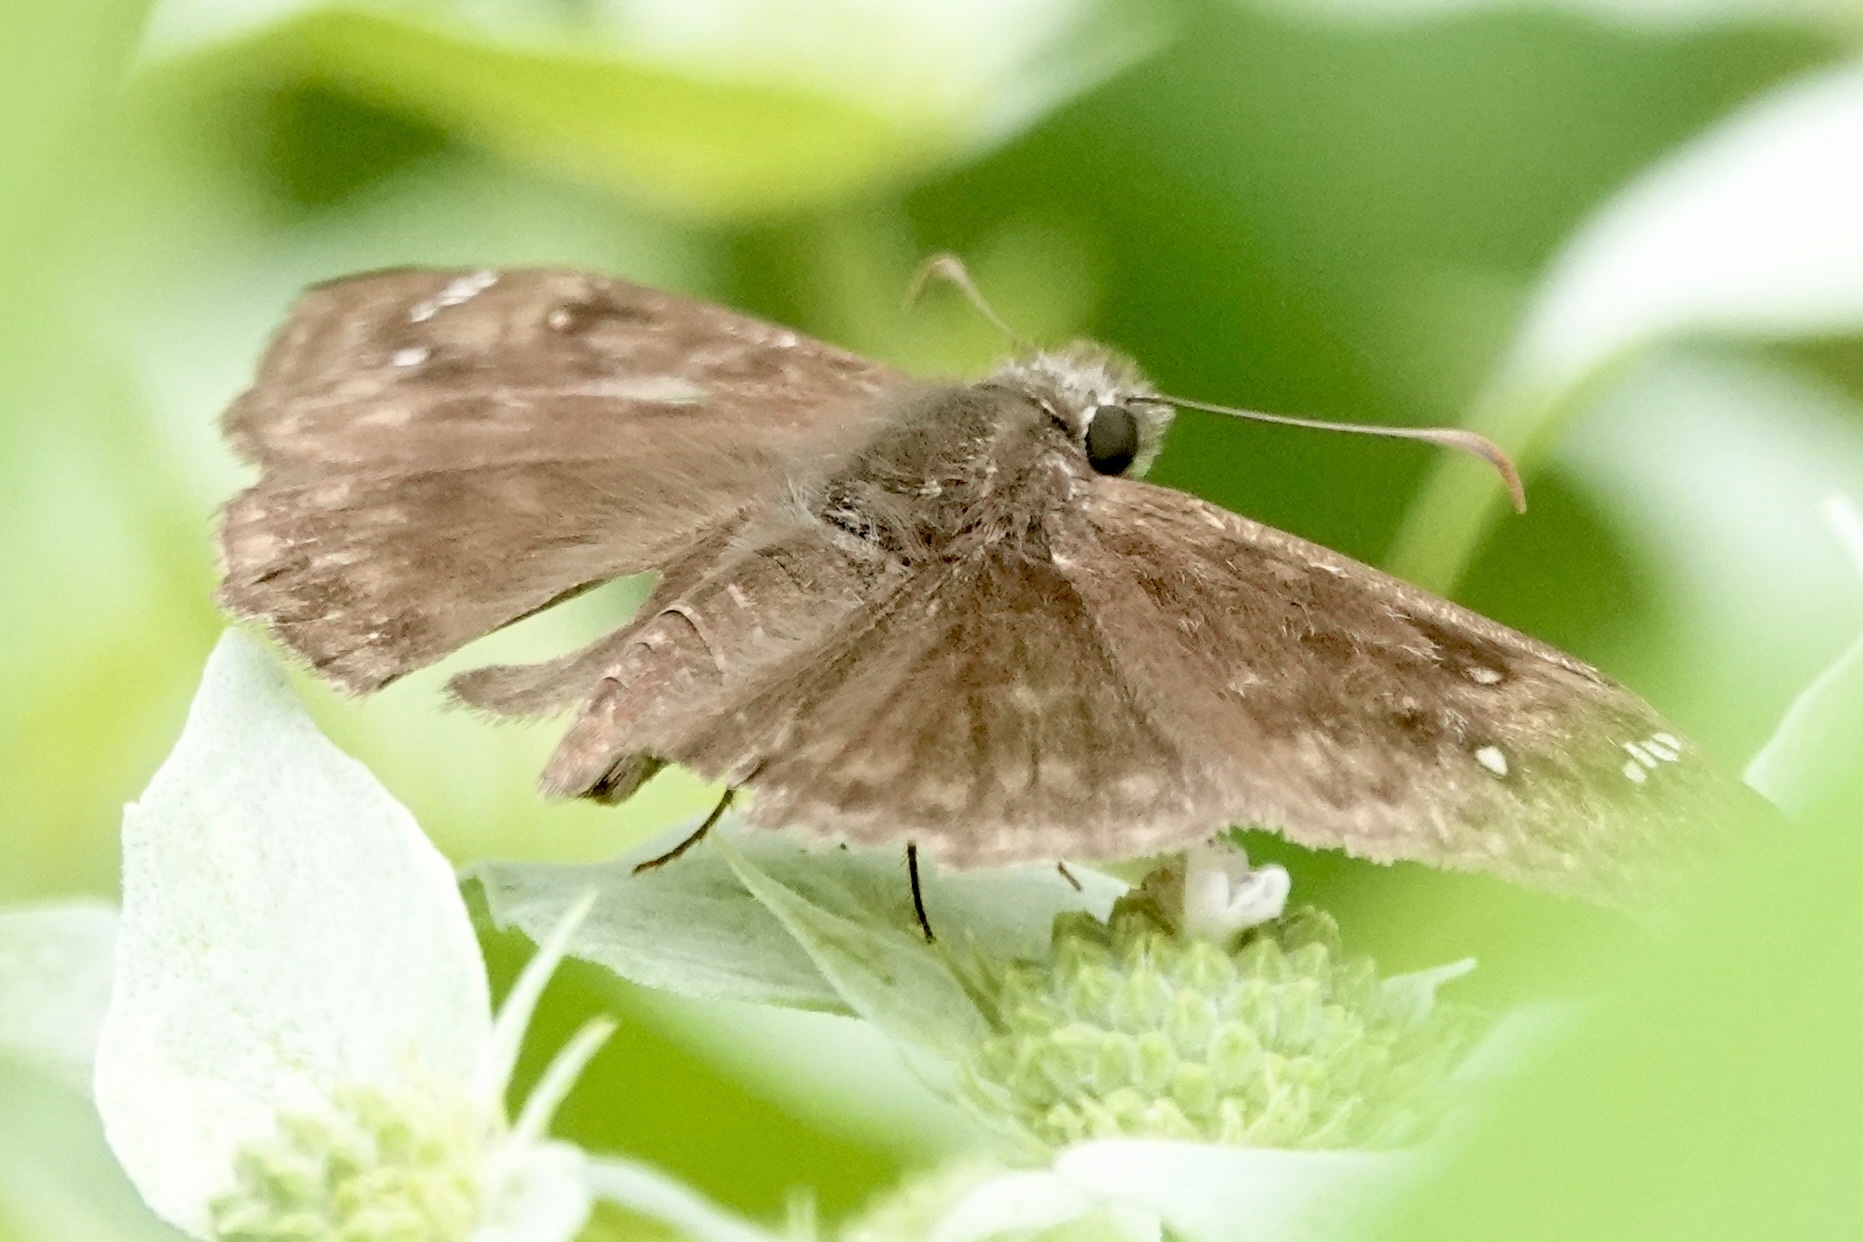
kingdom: Animalia
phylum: Arthropoda
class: Insecta
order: Lepidoptera
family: Hesperiidae
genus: Erynnis
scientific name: Erynnis horatius
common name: Horace's duskywing
